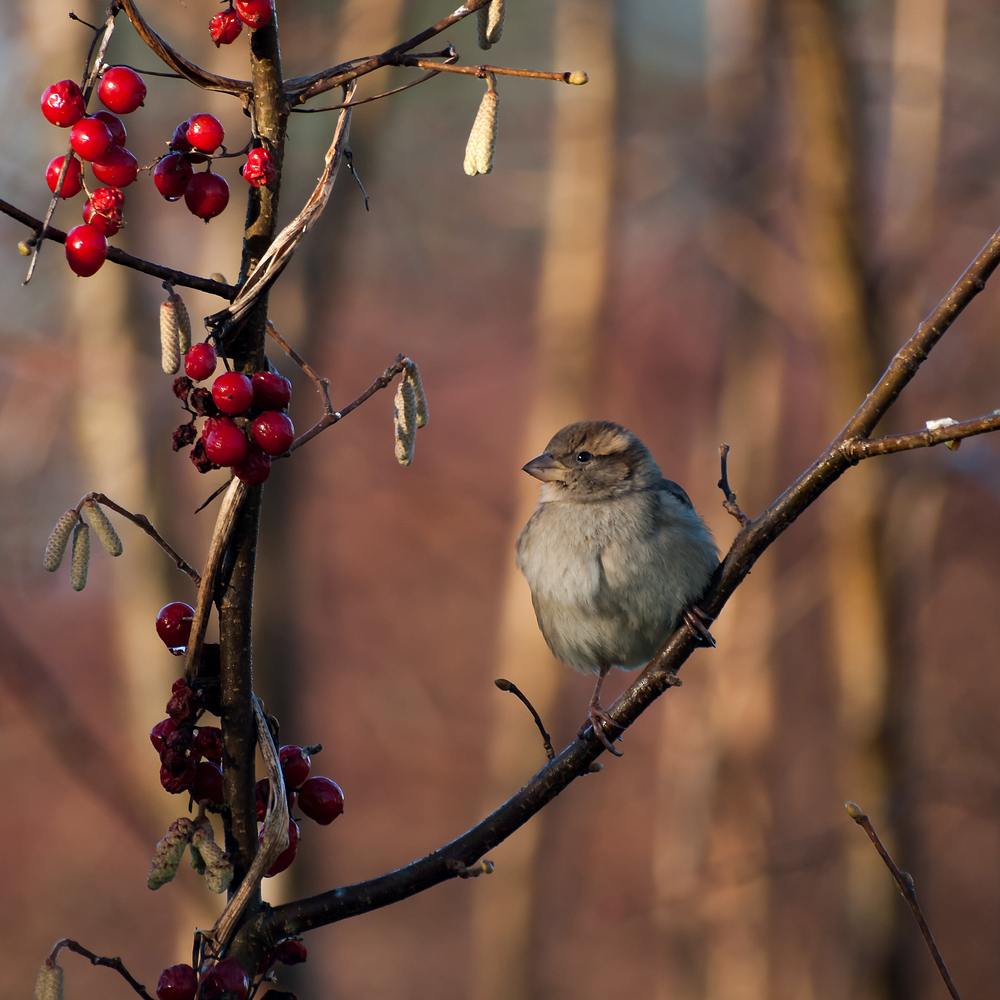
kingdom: Animalia
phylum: Chordata
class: Aves
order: Passeriformes
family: Passeridae
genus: Passer
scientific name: Passer domesticus
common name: House sparrow
